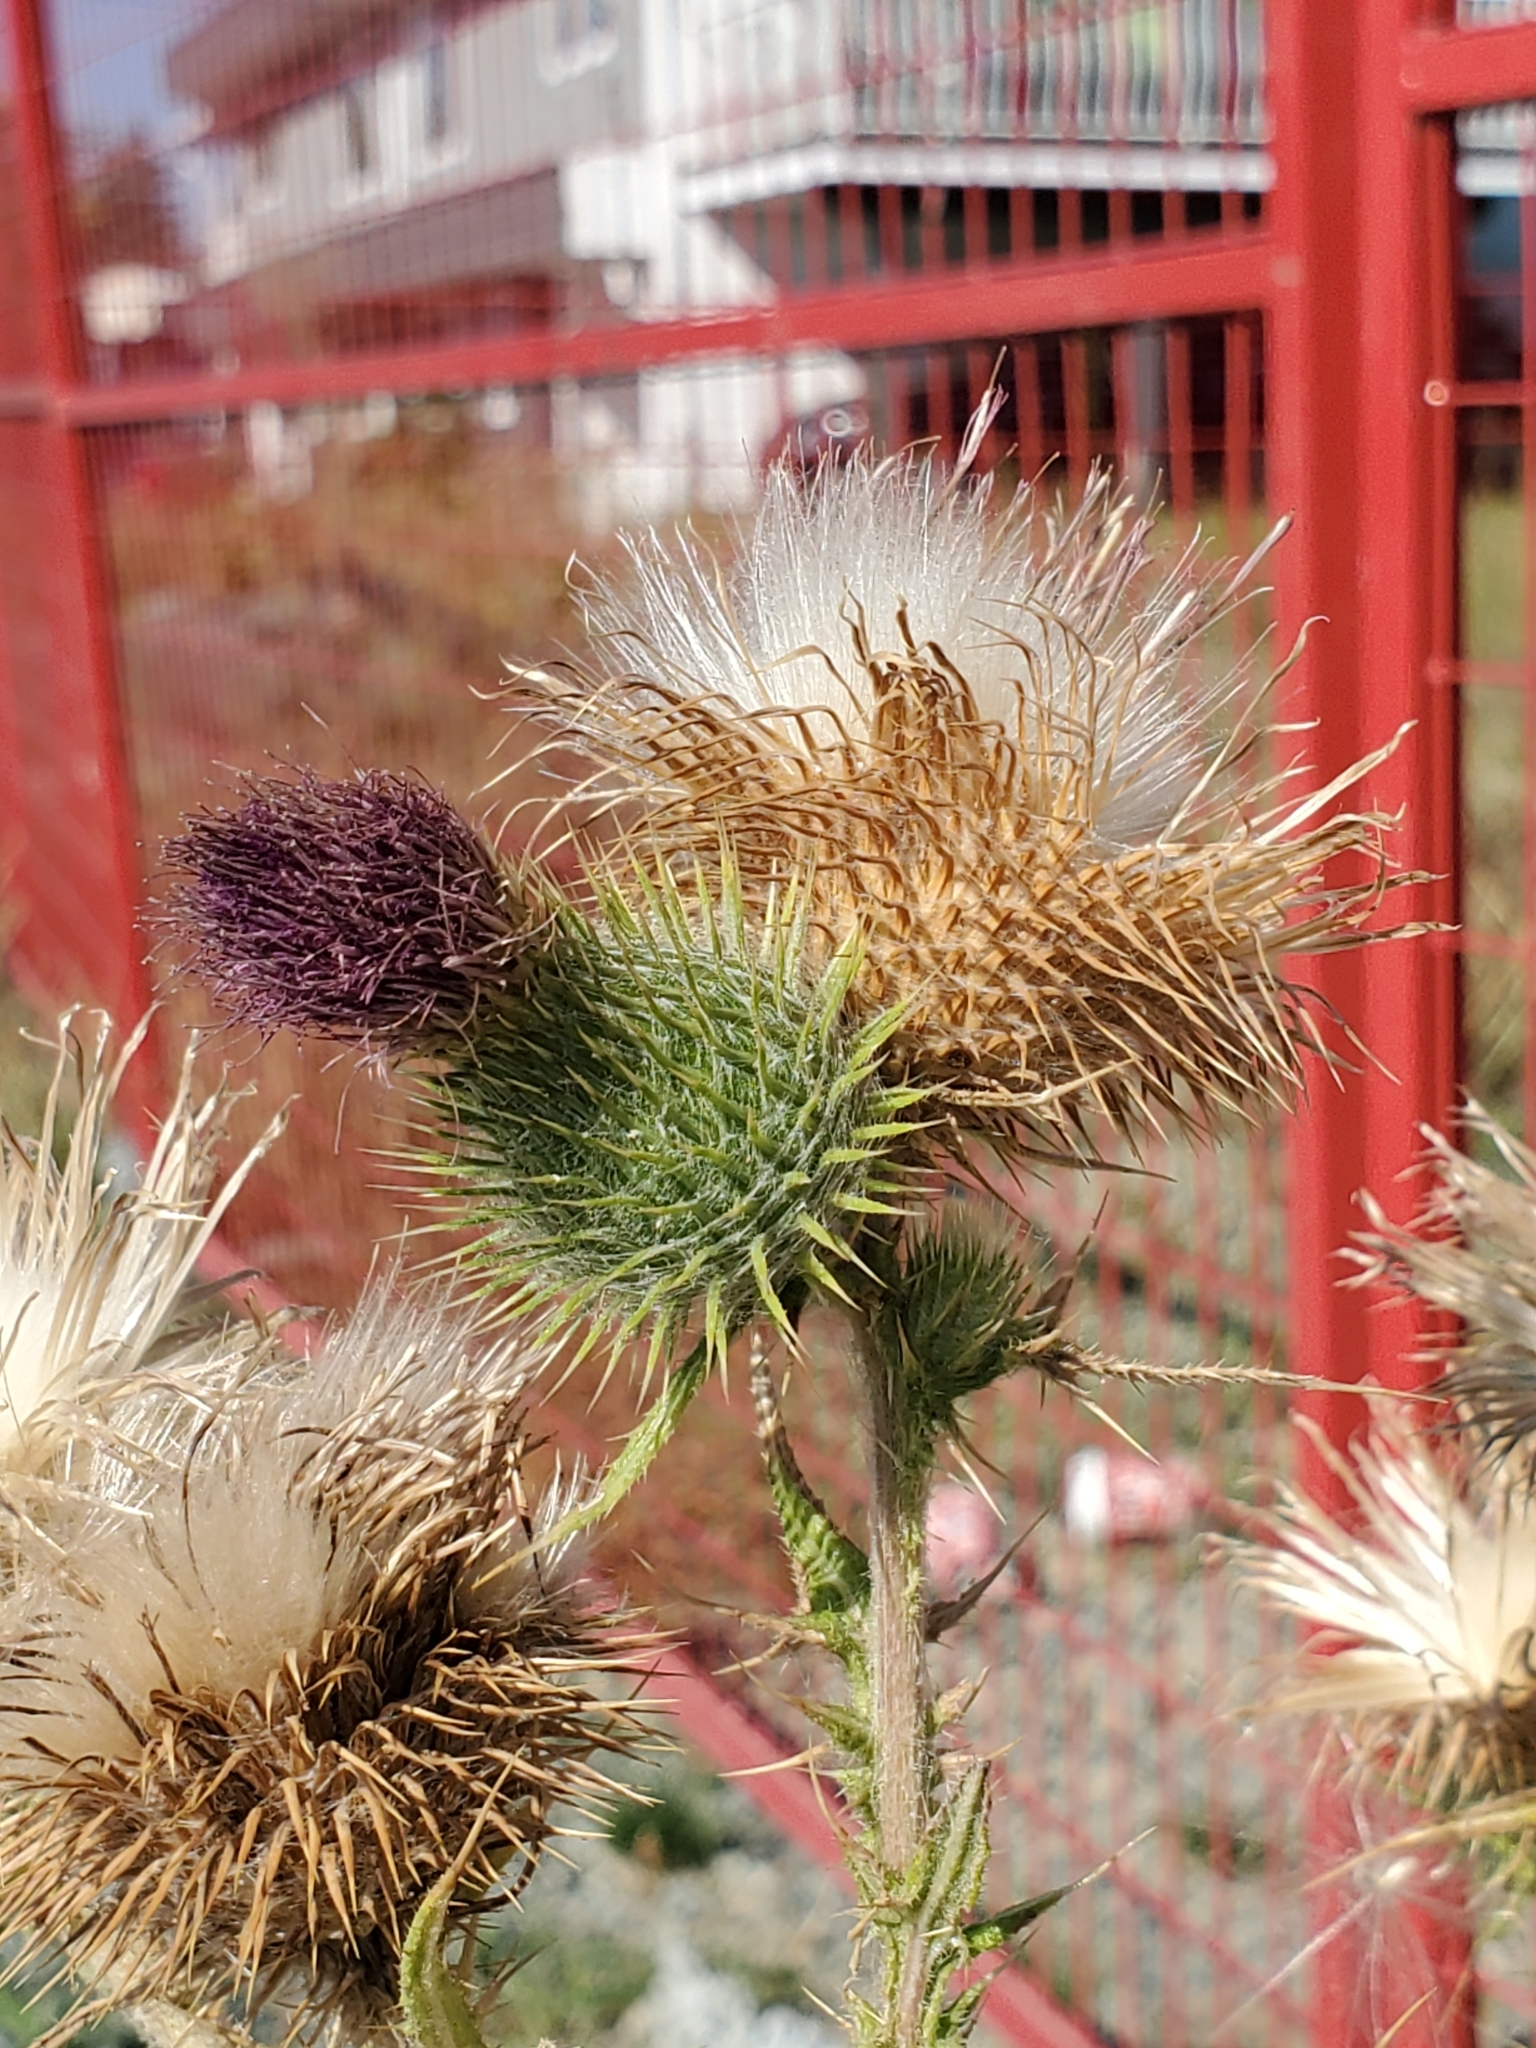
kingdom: Plantae
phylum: Tracheophyta
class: Magnoliopsida
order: Asterales
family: Asteraceae
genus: Cirsium
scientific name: Cirsium vulgare
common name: Bull thistle
